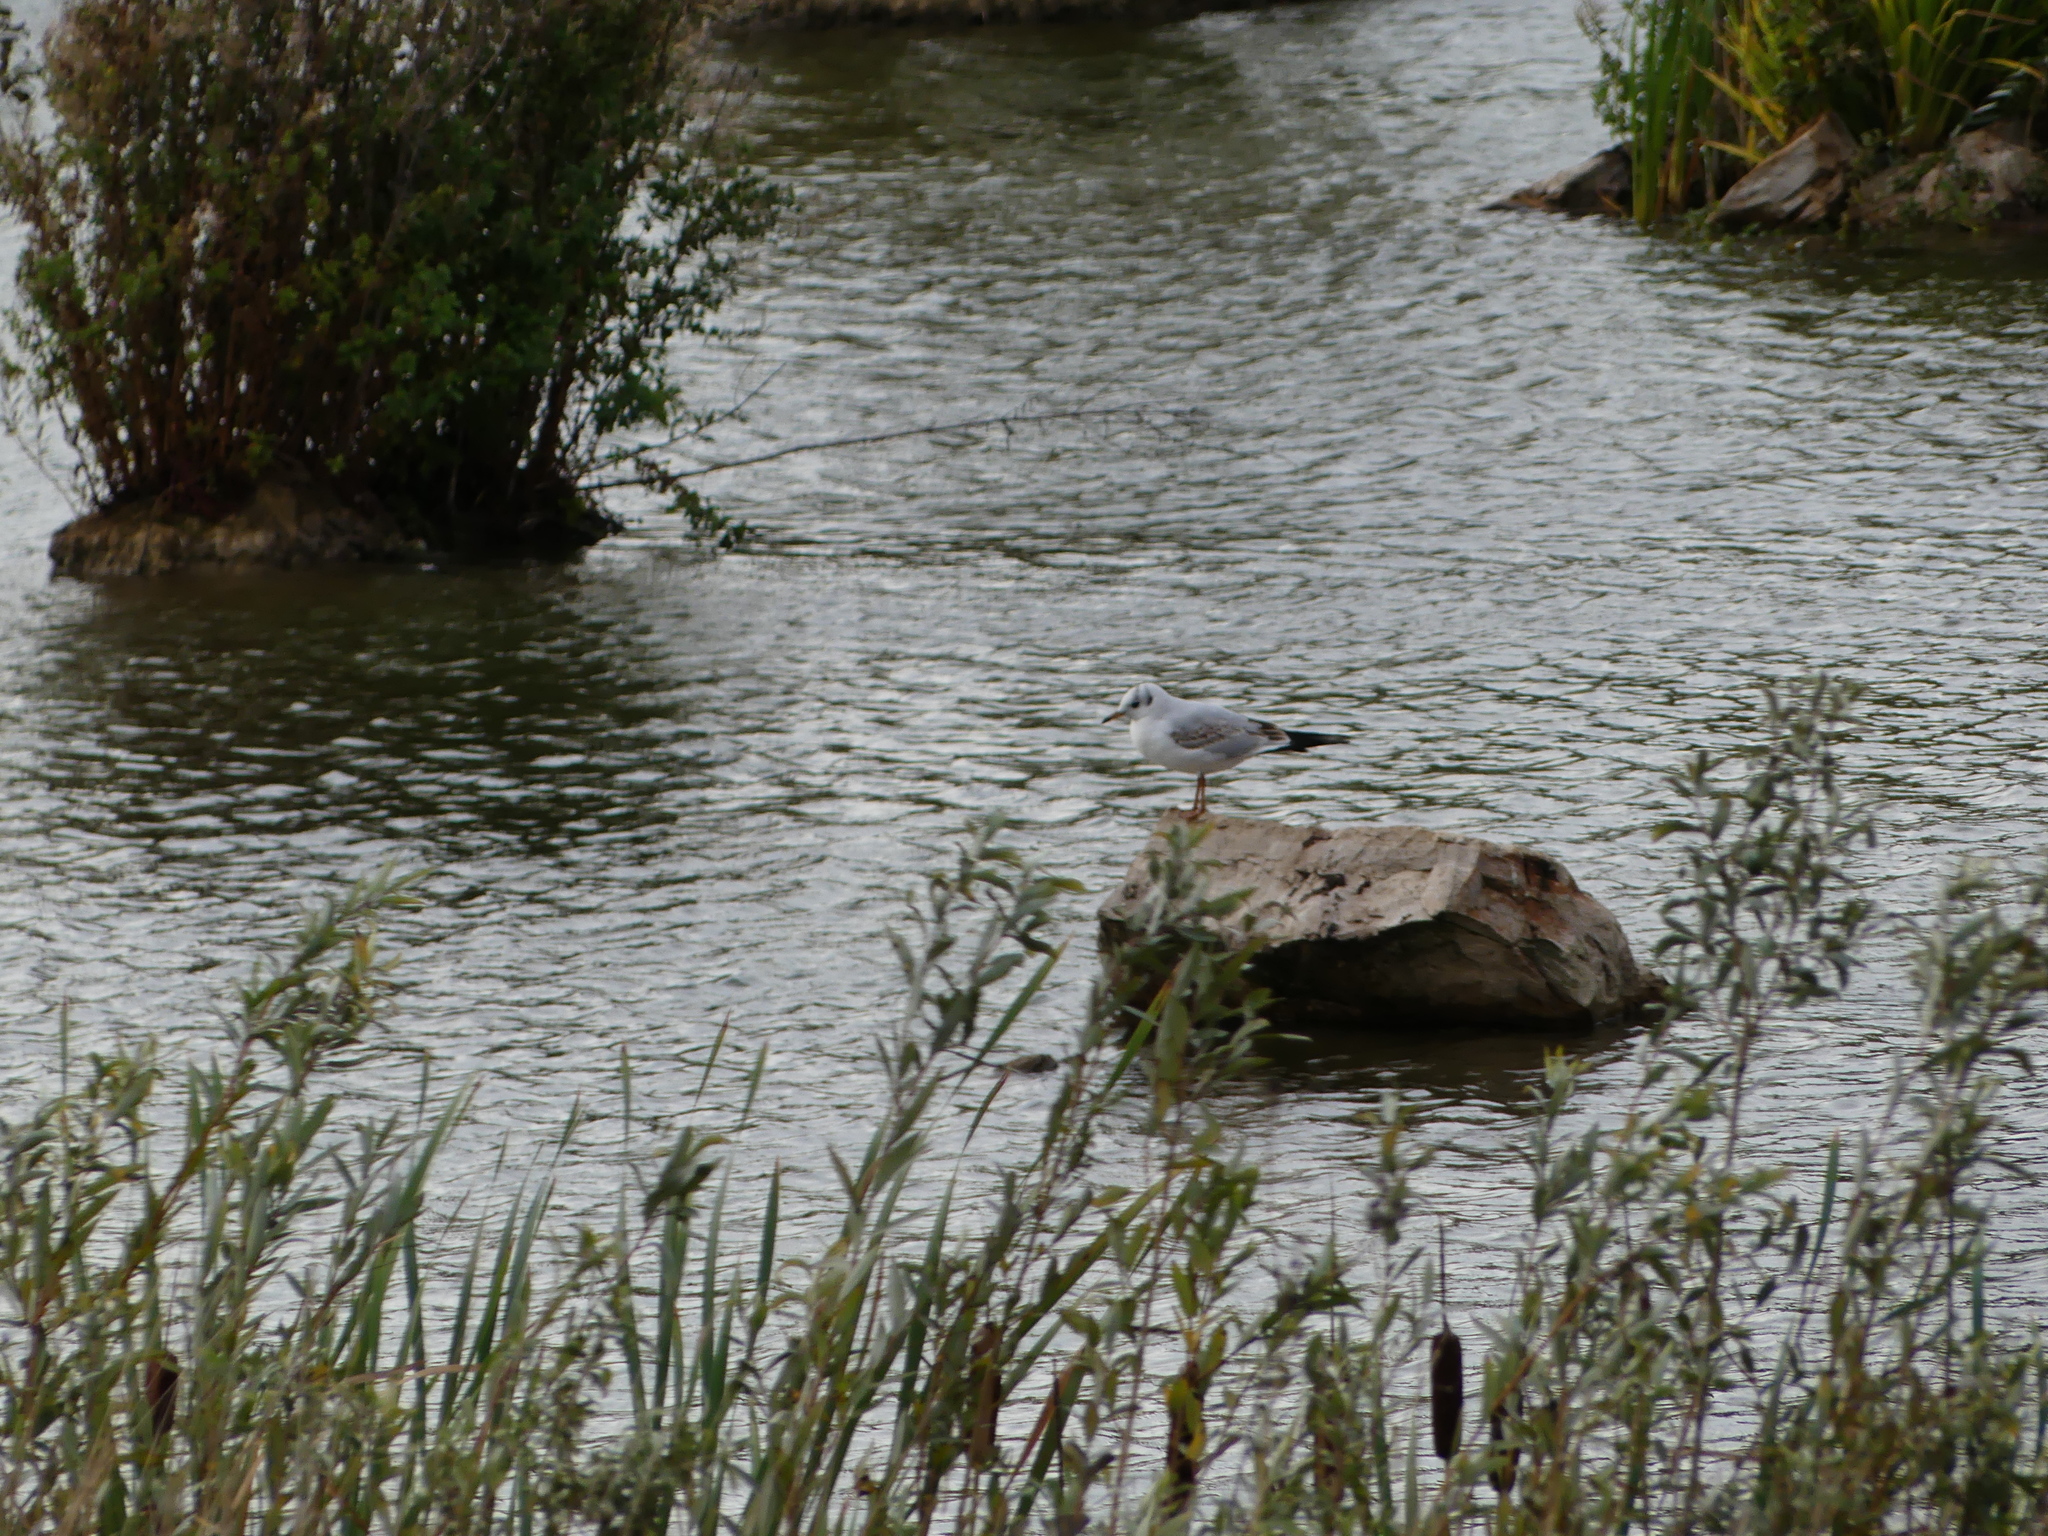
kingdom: Animalia
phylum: Chordata
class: Aves
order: Charadriiformes
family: Laridae
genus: Chroicocephalus
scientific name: Chroicocephalus ridibundus
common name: Black-headed gull
